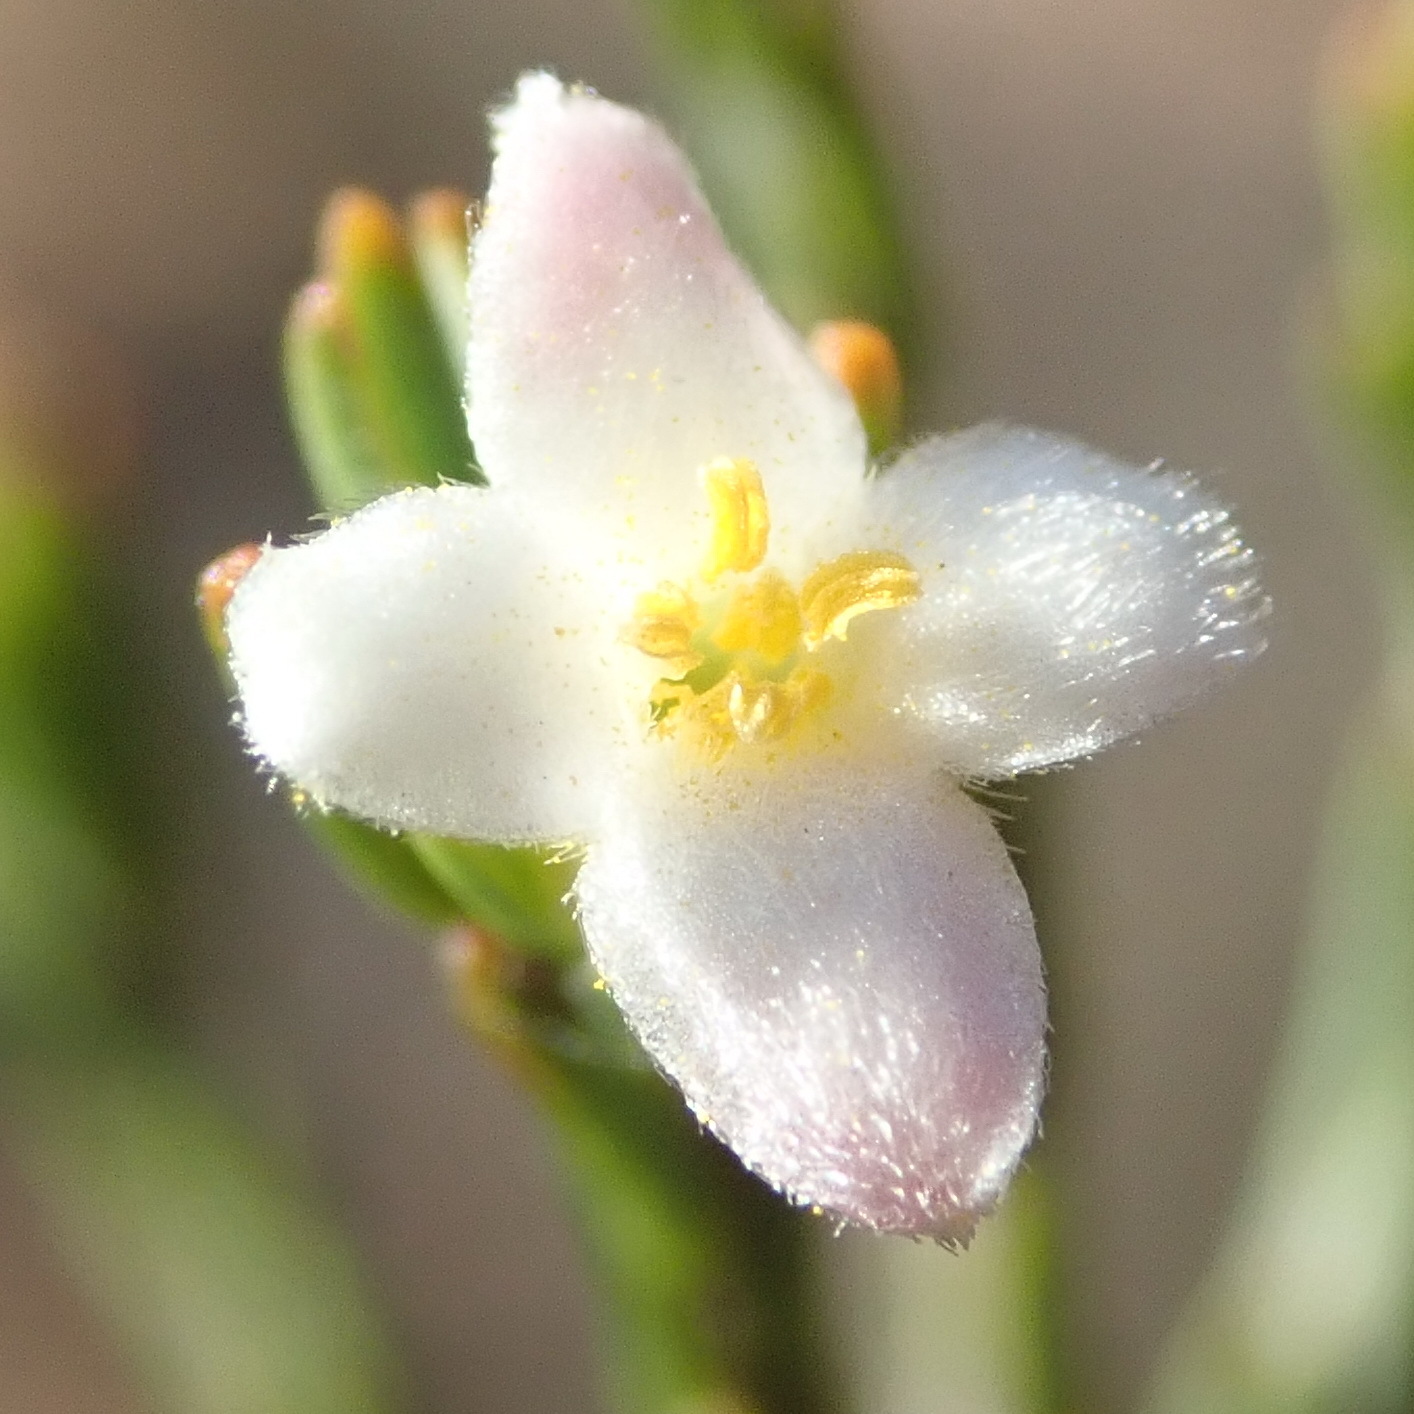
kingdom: Plantae
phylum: Tracheophyta
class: Magnoliopsida
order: Malvales
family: Thymelaeaceae
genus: Lachnaea
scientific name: Lachnaea pusilla
